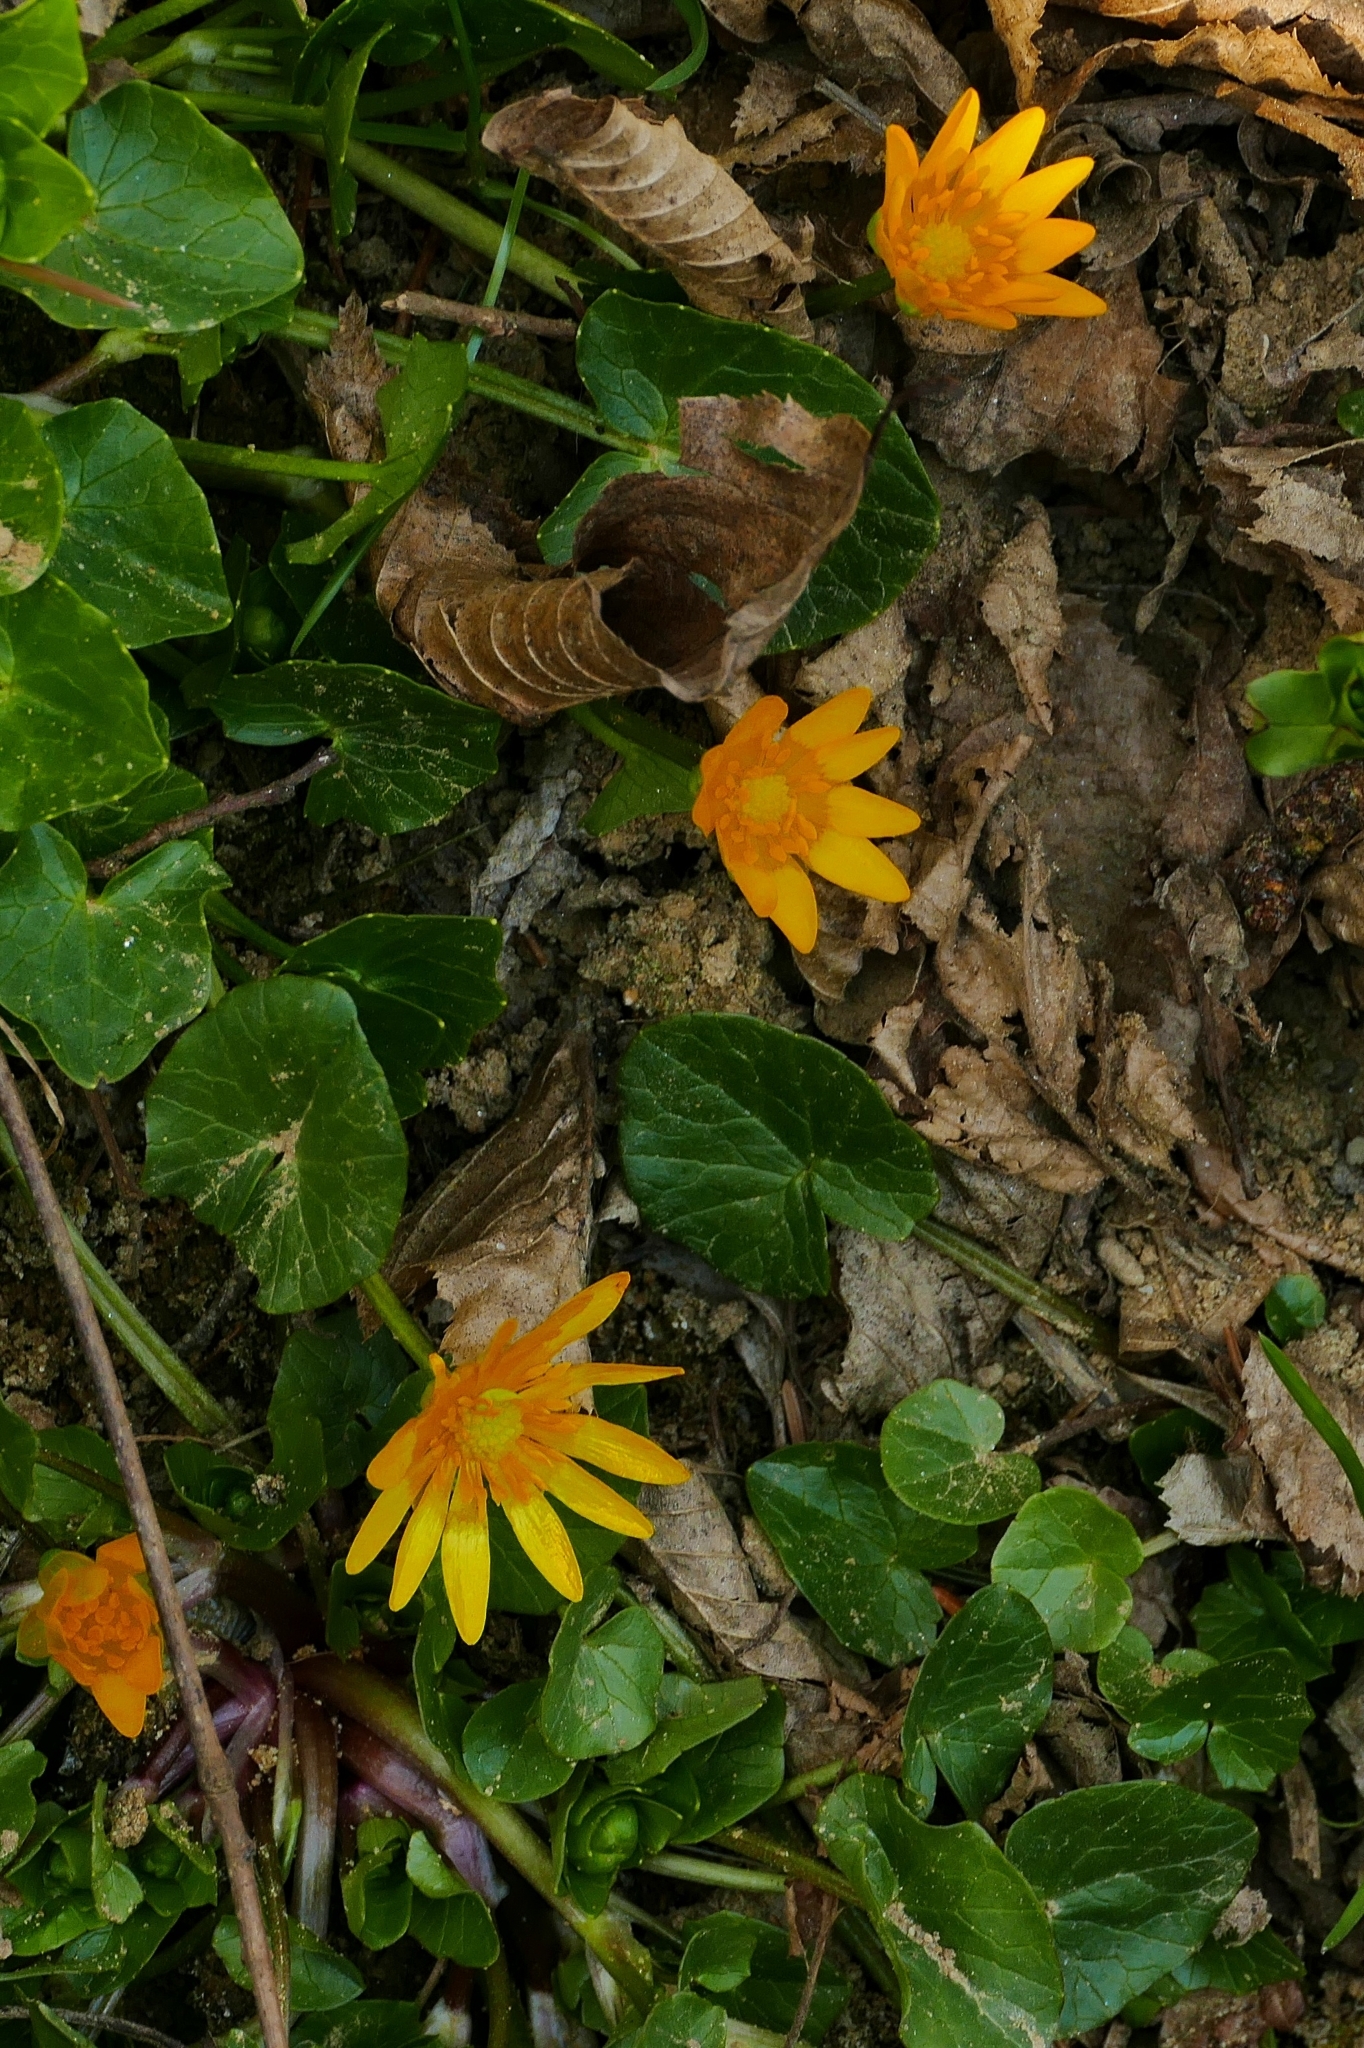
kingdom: Plantae
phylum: Tracheophyta
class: Magnoliopsida
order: Ranunculales
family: Ranunculaceae
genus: Ficaria
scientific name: Ficaria verna
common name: Lesser celandine
